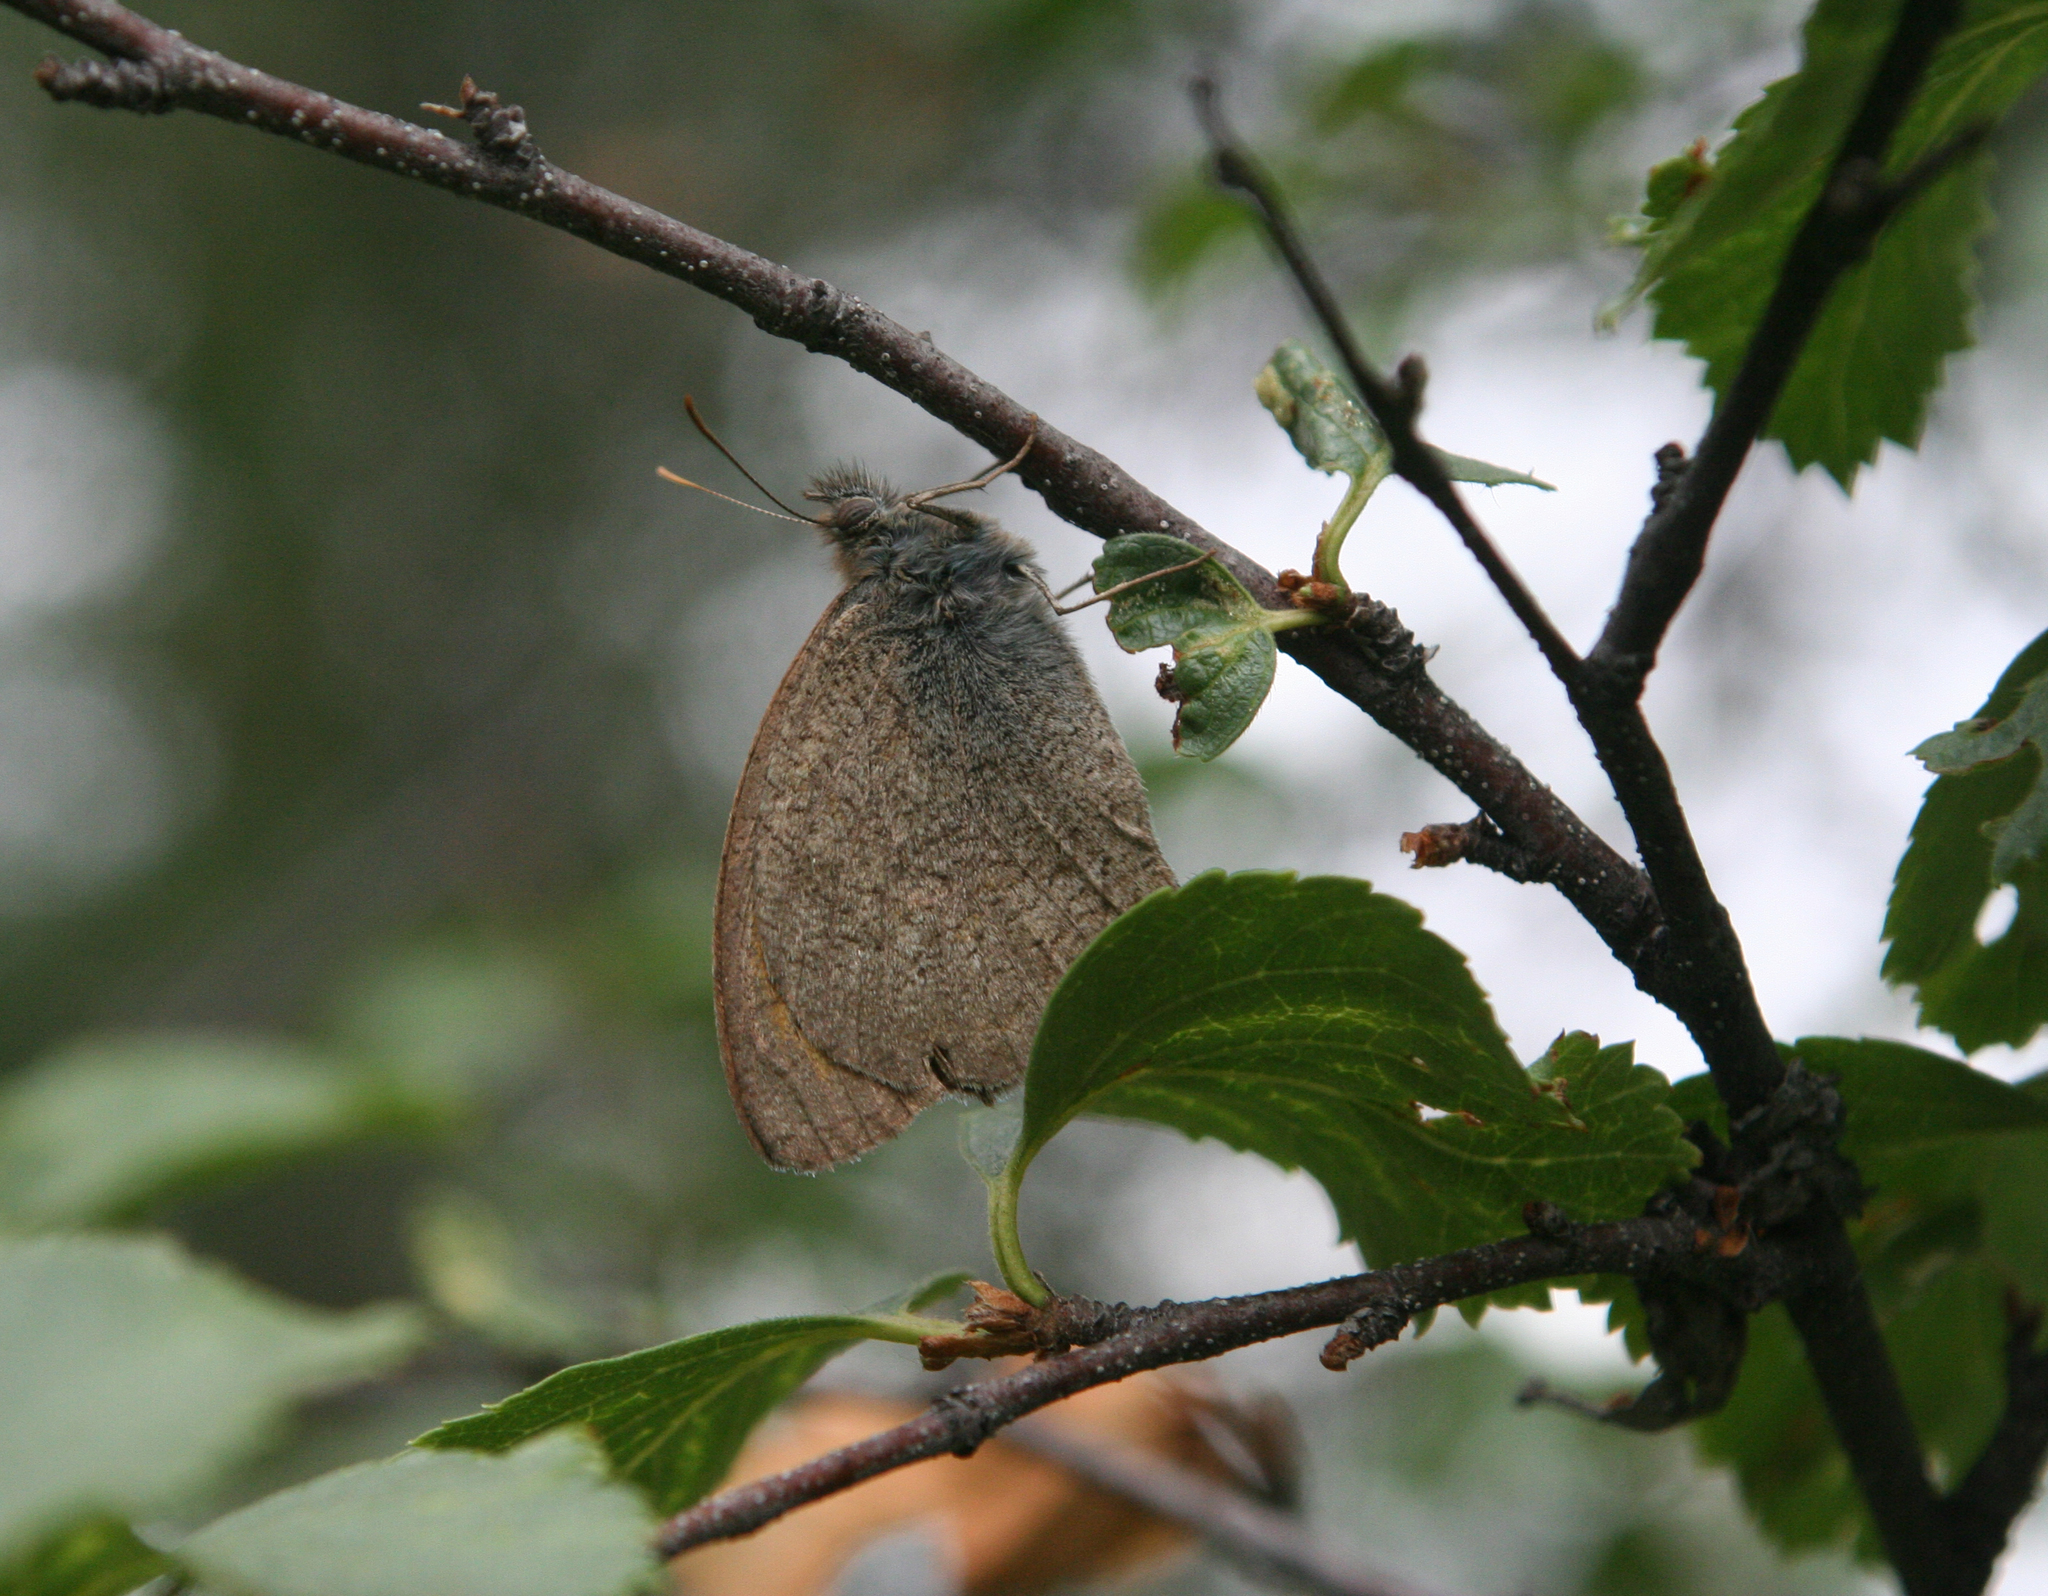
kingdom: Animalia
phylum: Arthropoda
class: Insecta
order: Lepidoptera
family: Nymphalidae
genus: Hyponephele
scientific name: Hyponephele lupinus
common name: Oriental meadow brown
